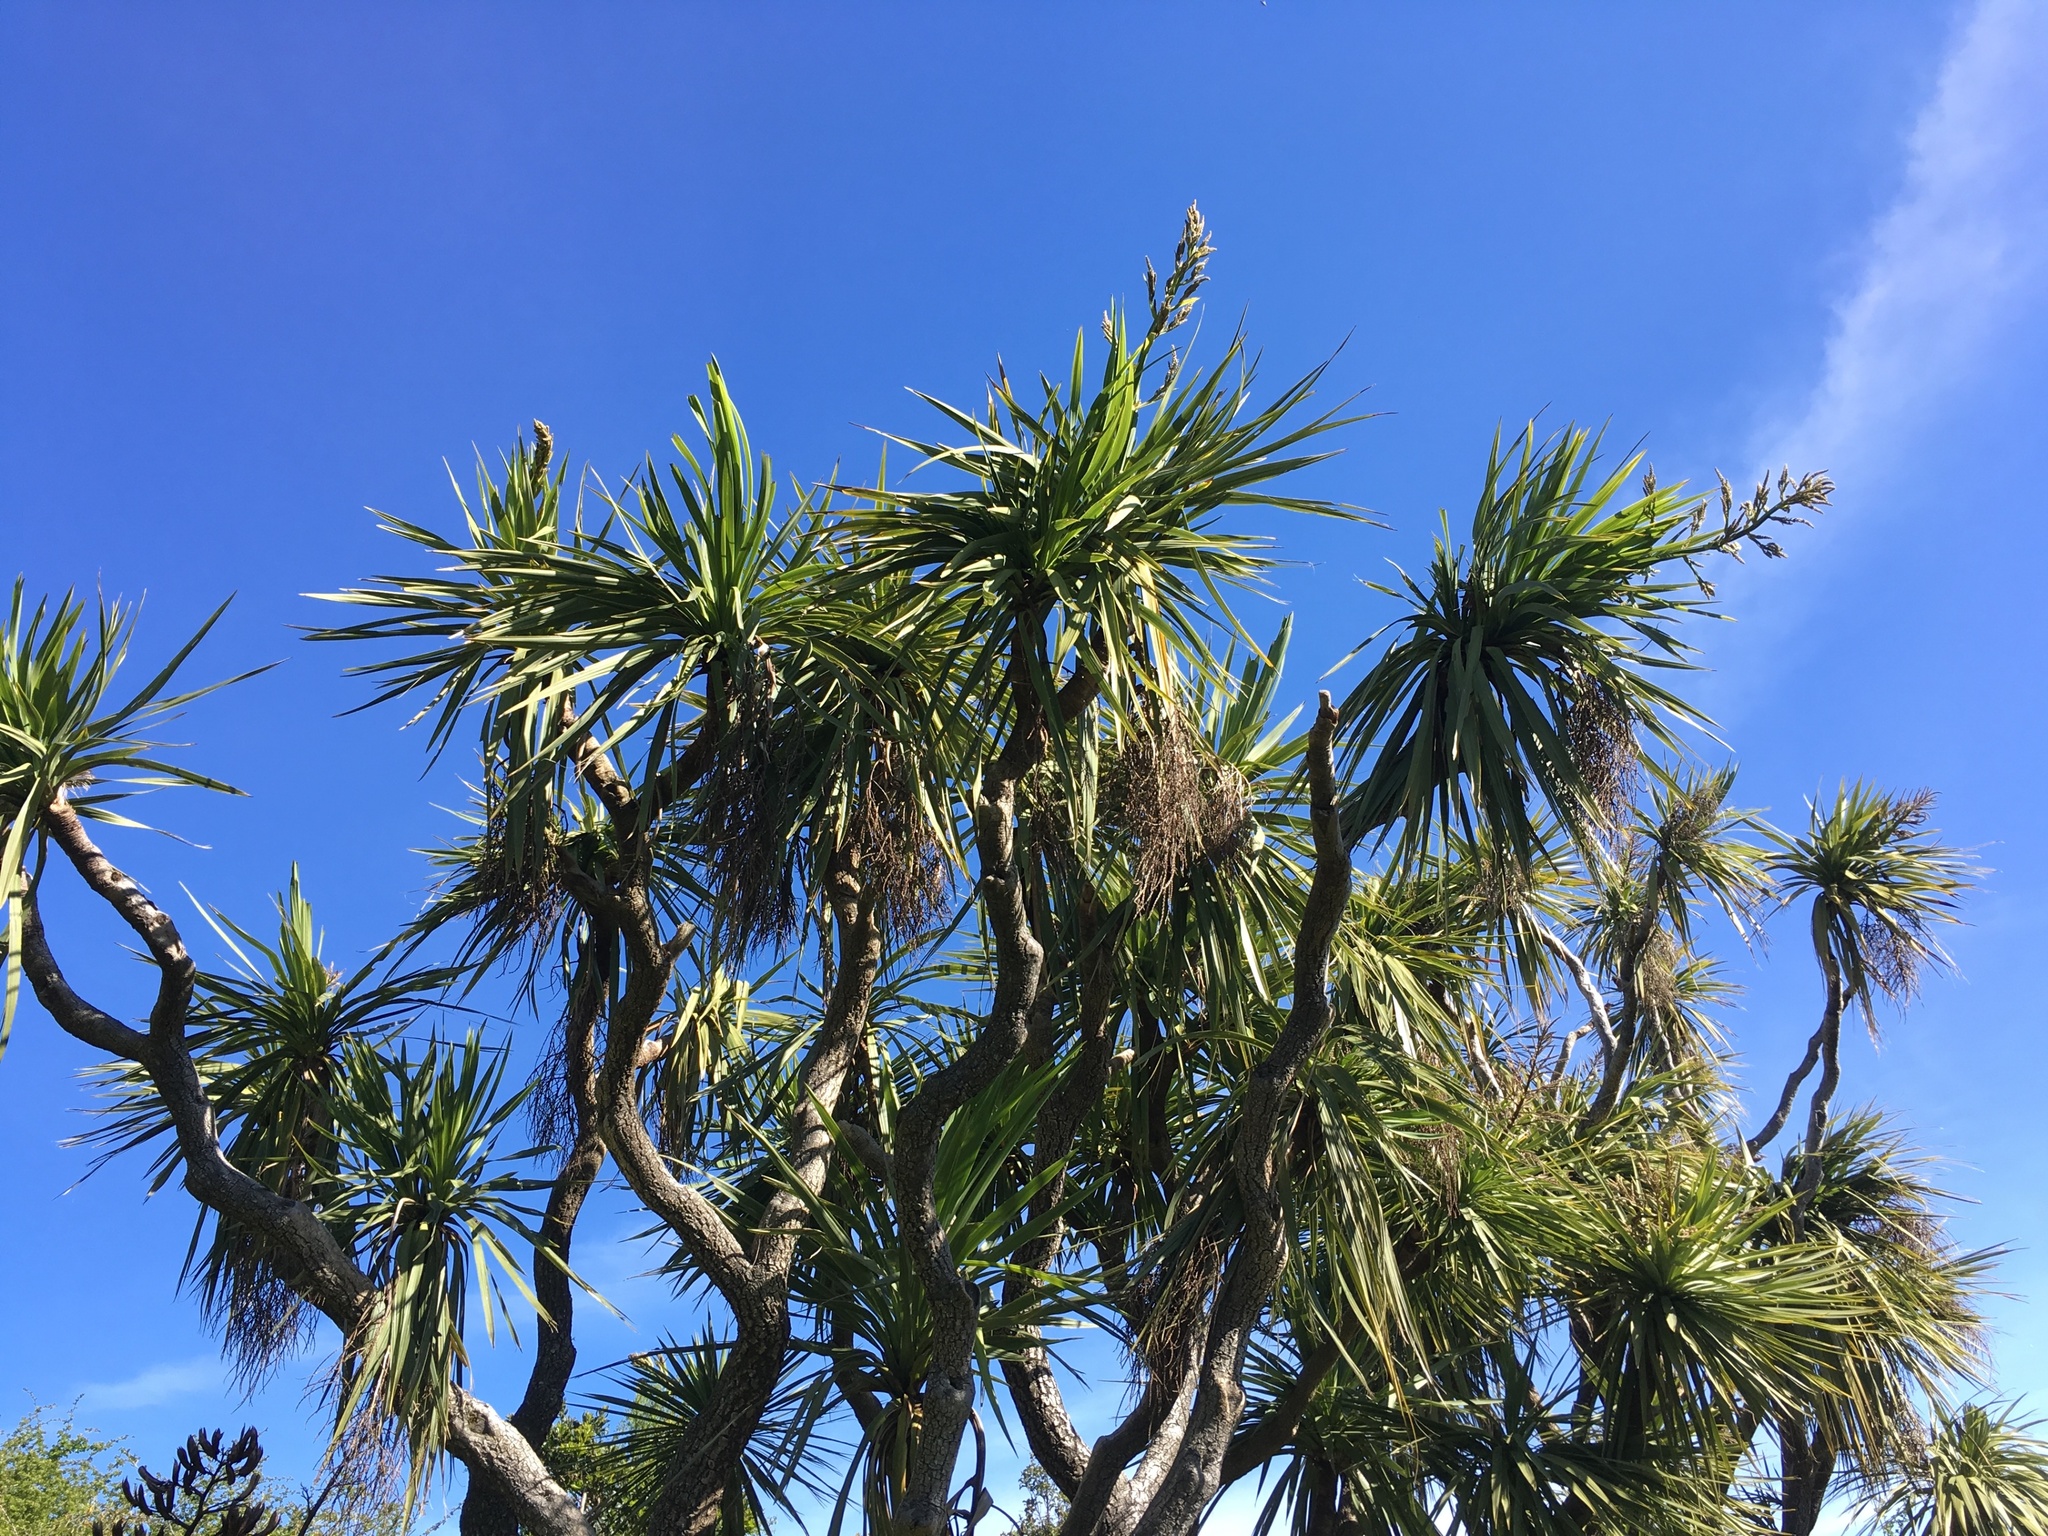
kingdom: Plantae
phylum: Tracheophyta
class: Liliopsida
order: Asparagales
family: Asparagaceae
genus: Cordyline
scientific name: Cordyline australis
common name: Cabbage-palm
